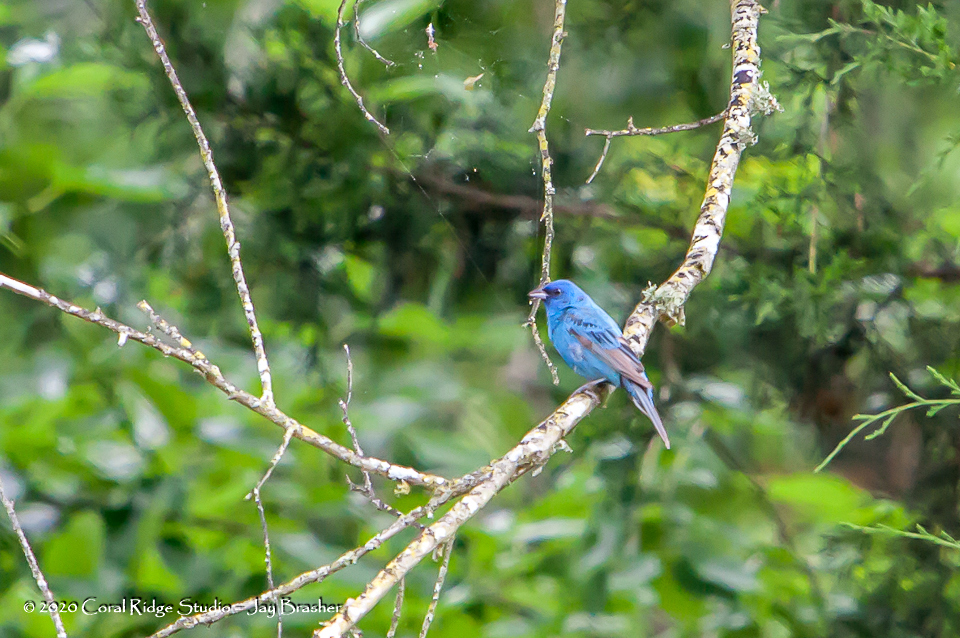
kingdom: Animalia
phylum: Chordata
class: Aves
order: Passeriformes
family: Cardinalidae
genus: Passerina
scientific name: Passerina cyanea
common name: Indigo bunting
